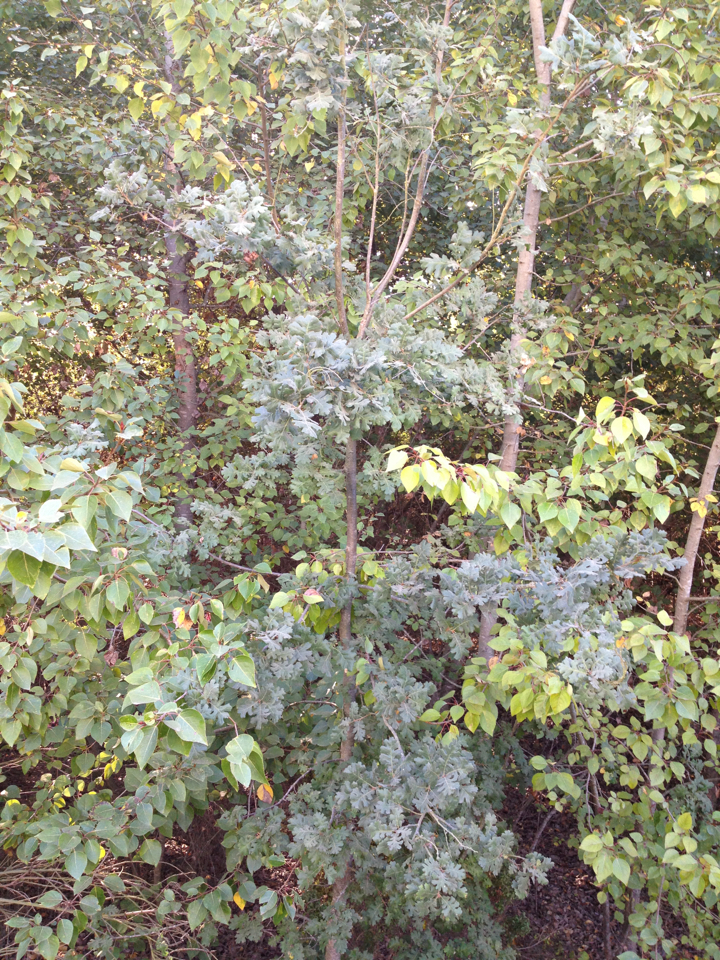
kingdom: Plantae
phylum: Tracheophyta
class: Magnoliopsida
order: Fagales
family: Fagaceae
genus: Quercus
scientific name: Quercus lobata
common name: Valley oak
